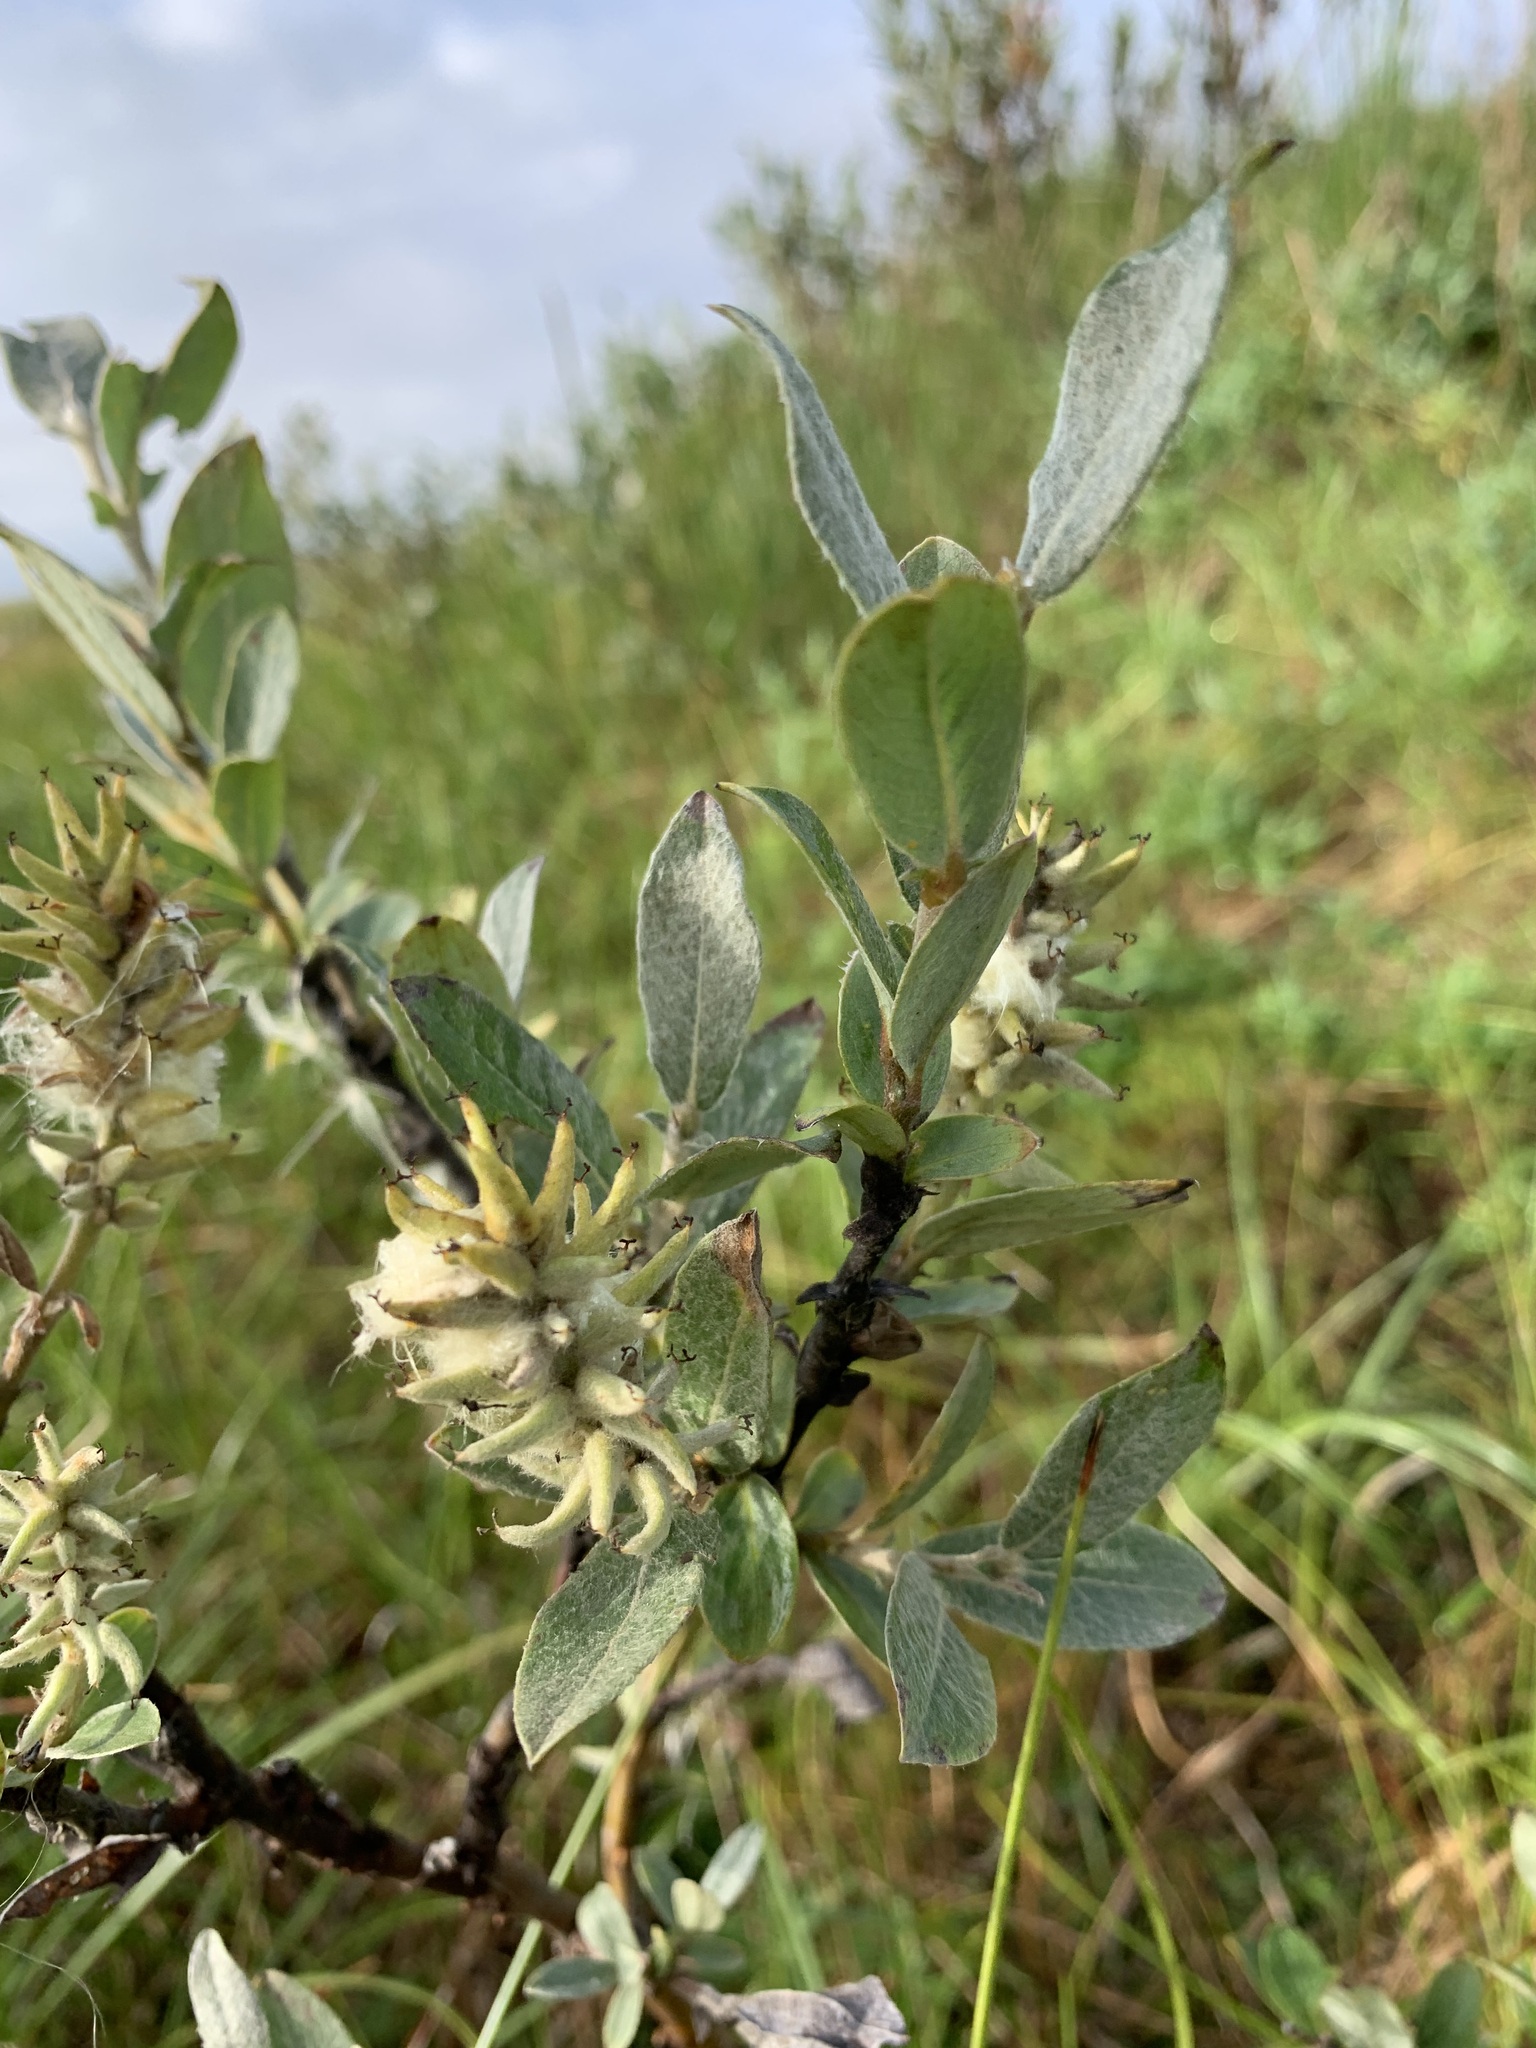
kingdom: Plantae
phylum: Tracheophyta
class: Magnoliopsida
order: Malpighiales
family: Salicaceae
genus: Salix
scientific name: Salix glauca
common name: Glaucous willow
